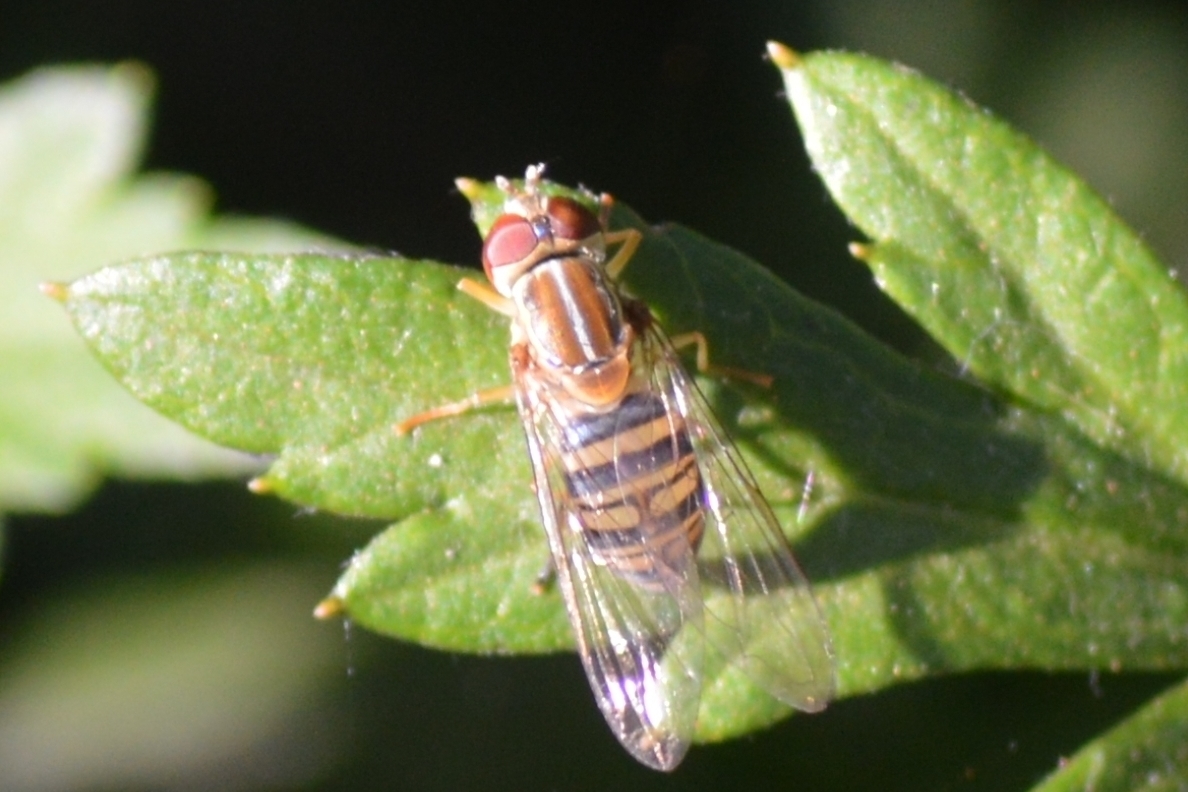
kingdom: Animalia
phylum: Arthropoda
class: Insecta
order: Diptera
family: Syrphidae
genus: Toxomerus
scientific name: Toxomerus politus
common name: Maize calligrapher
